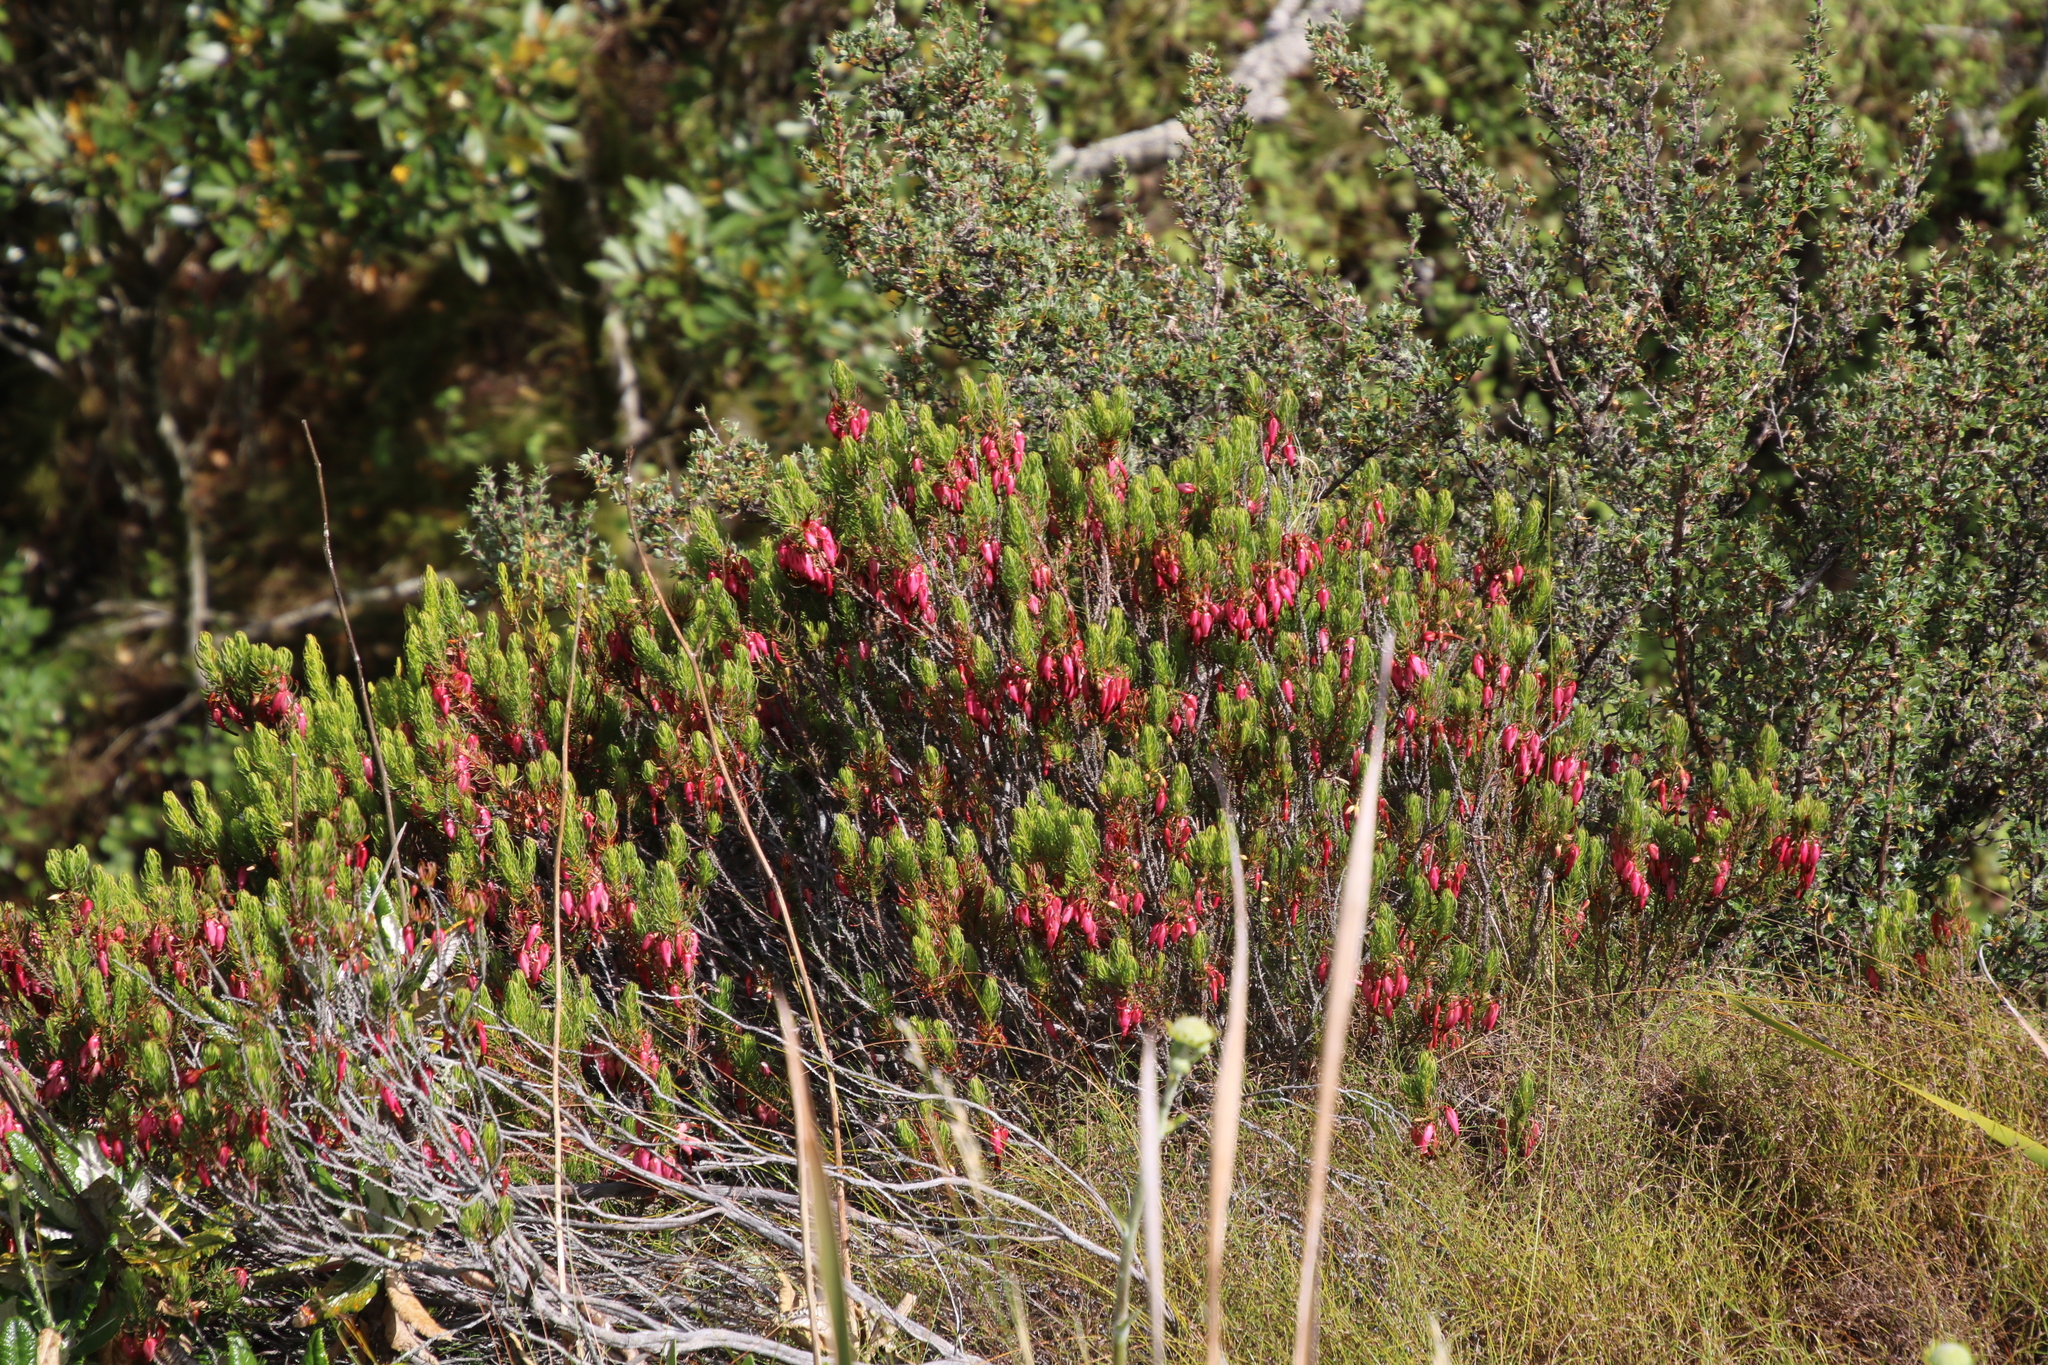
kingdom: Plantae
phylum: Tracheophyta
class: Magnoliopsida
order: Ericales
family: Ericaceae
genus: Erica
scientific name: Erica plukenetii
